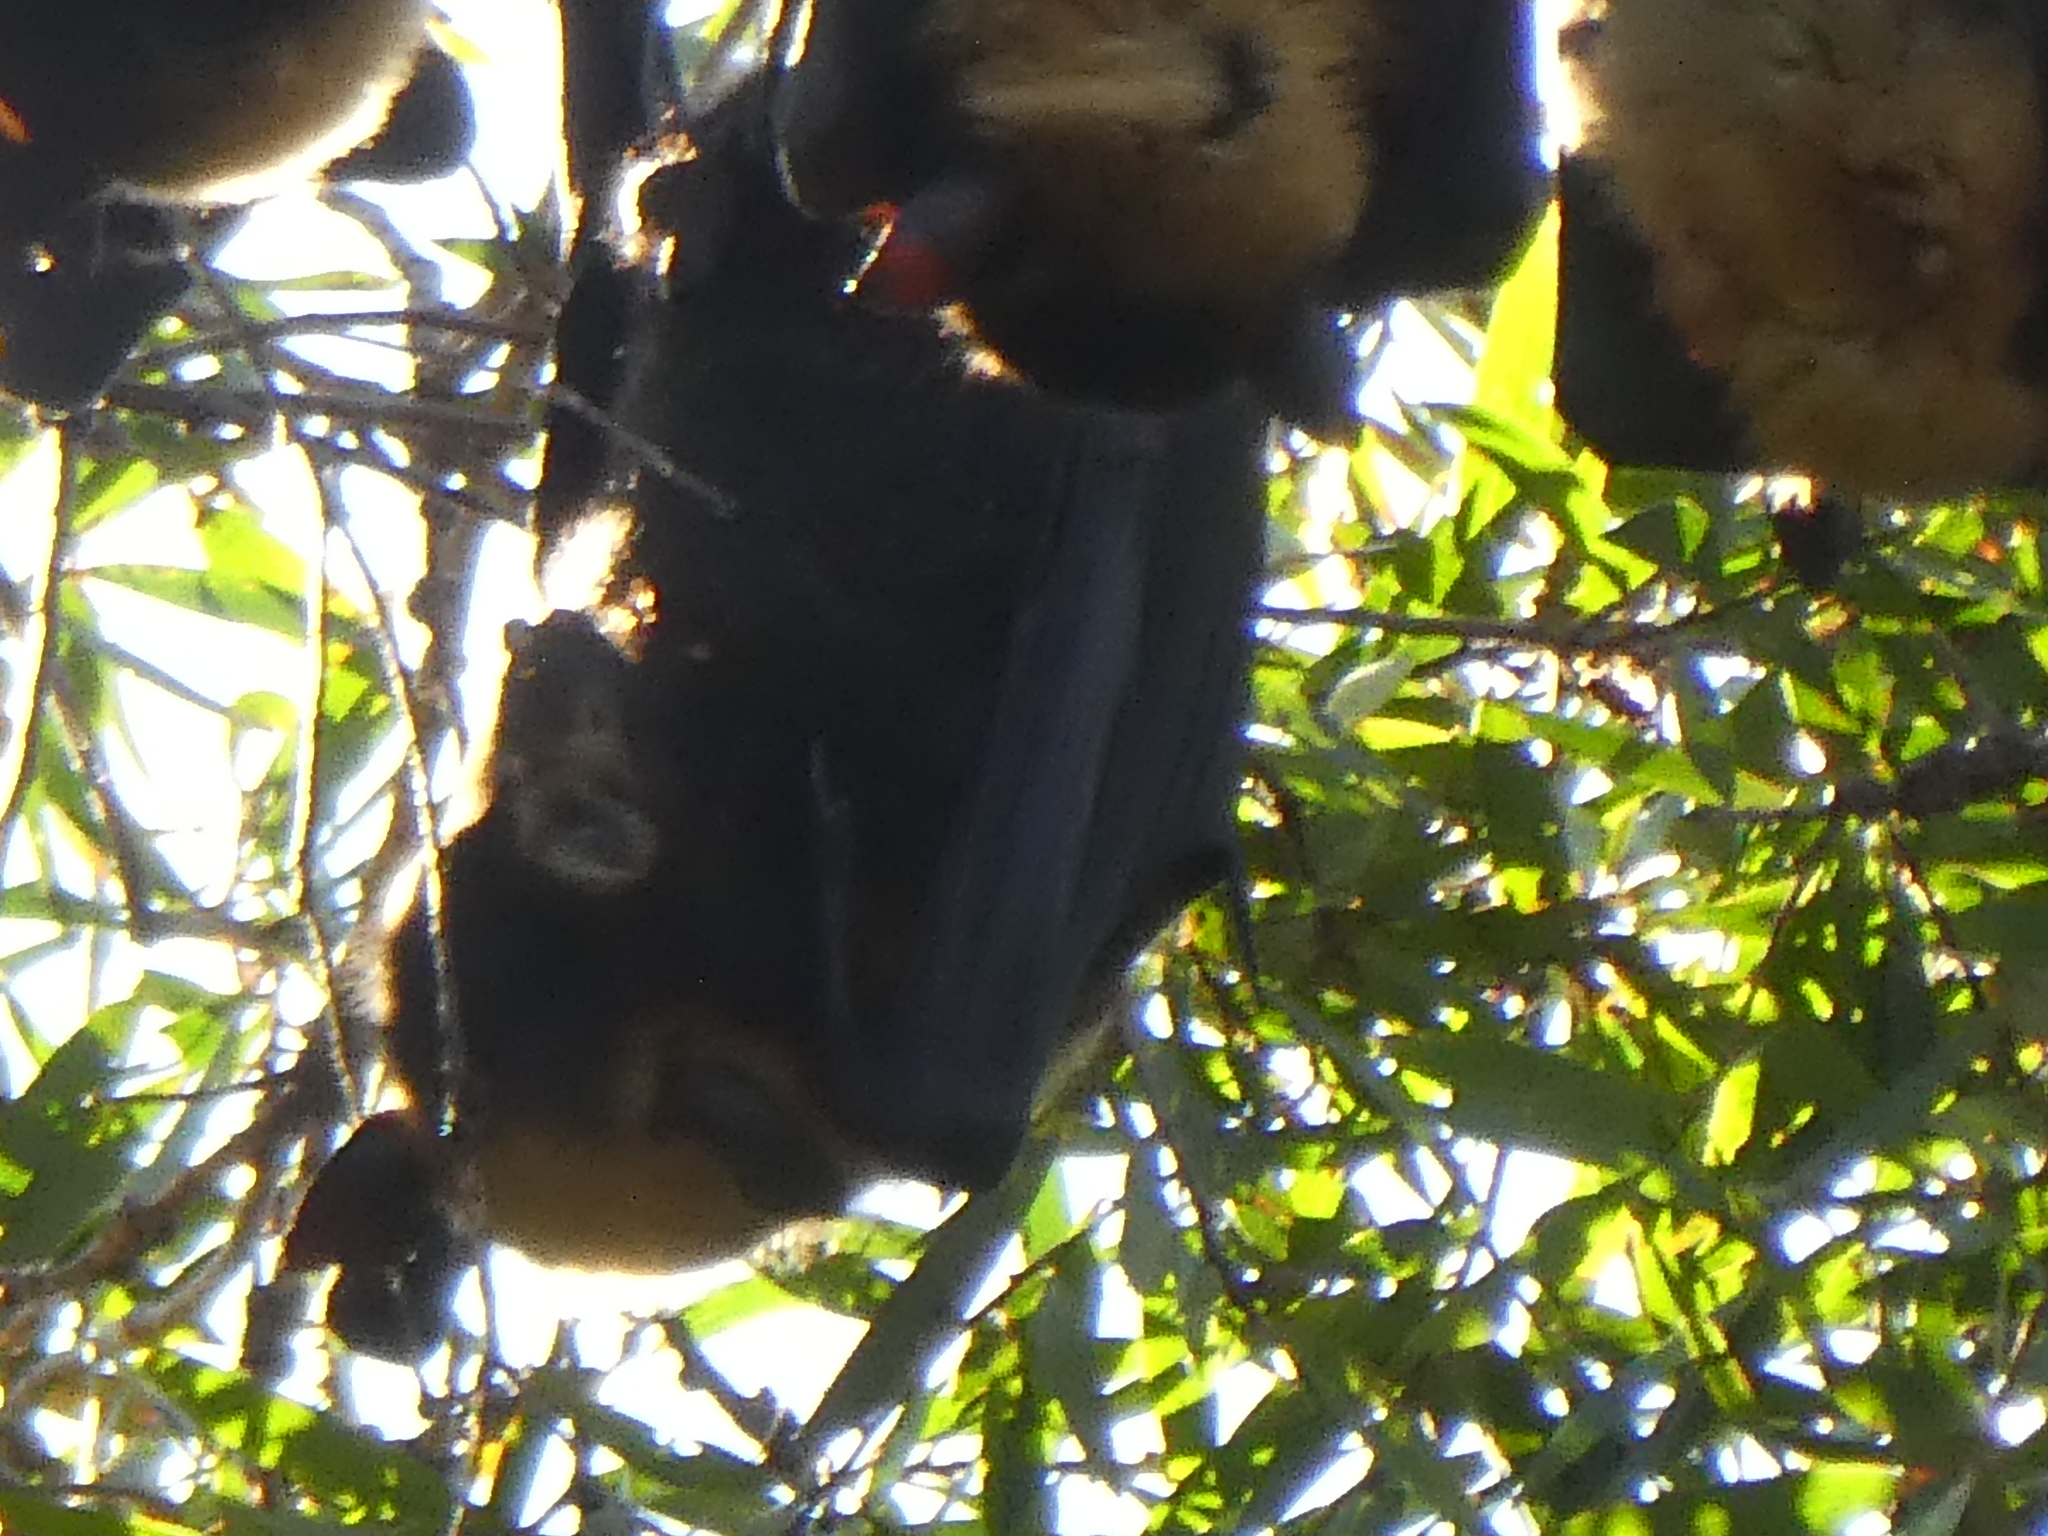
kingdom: Animalia
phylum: Chordata
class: Mammalia
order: Chiroptera
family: Pteropodidae
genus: Pteropus
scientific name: Pteropus conspicillatus
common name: Spectacled flying fox
